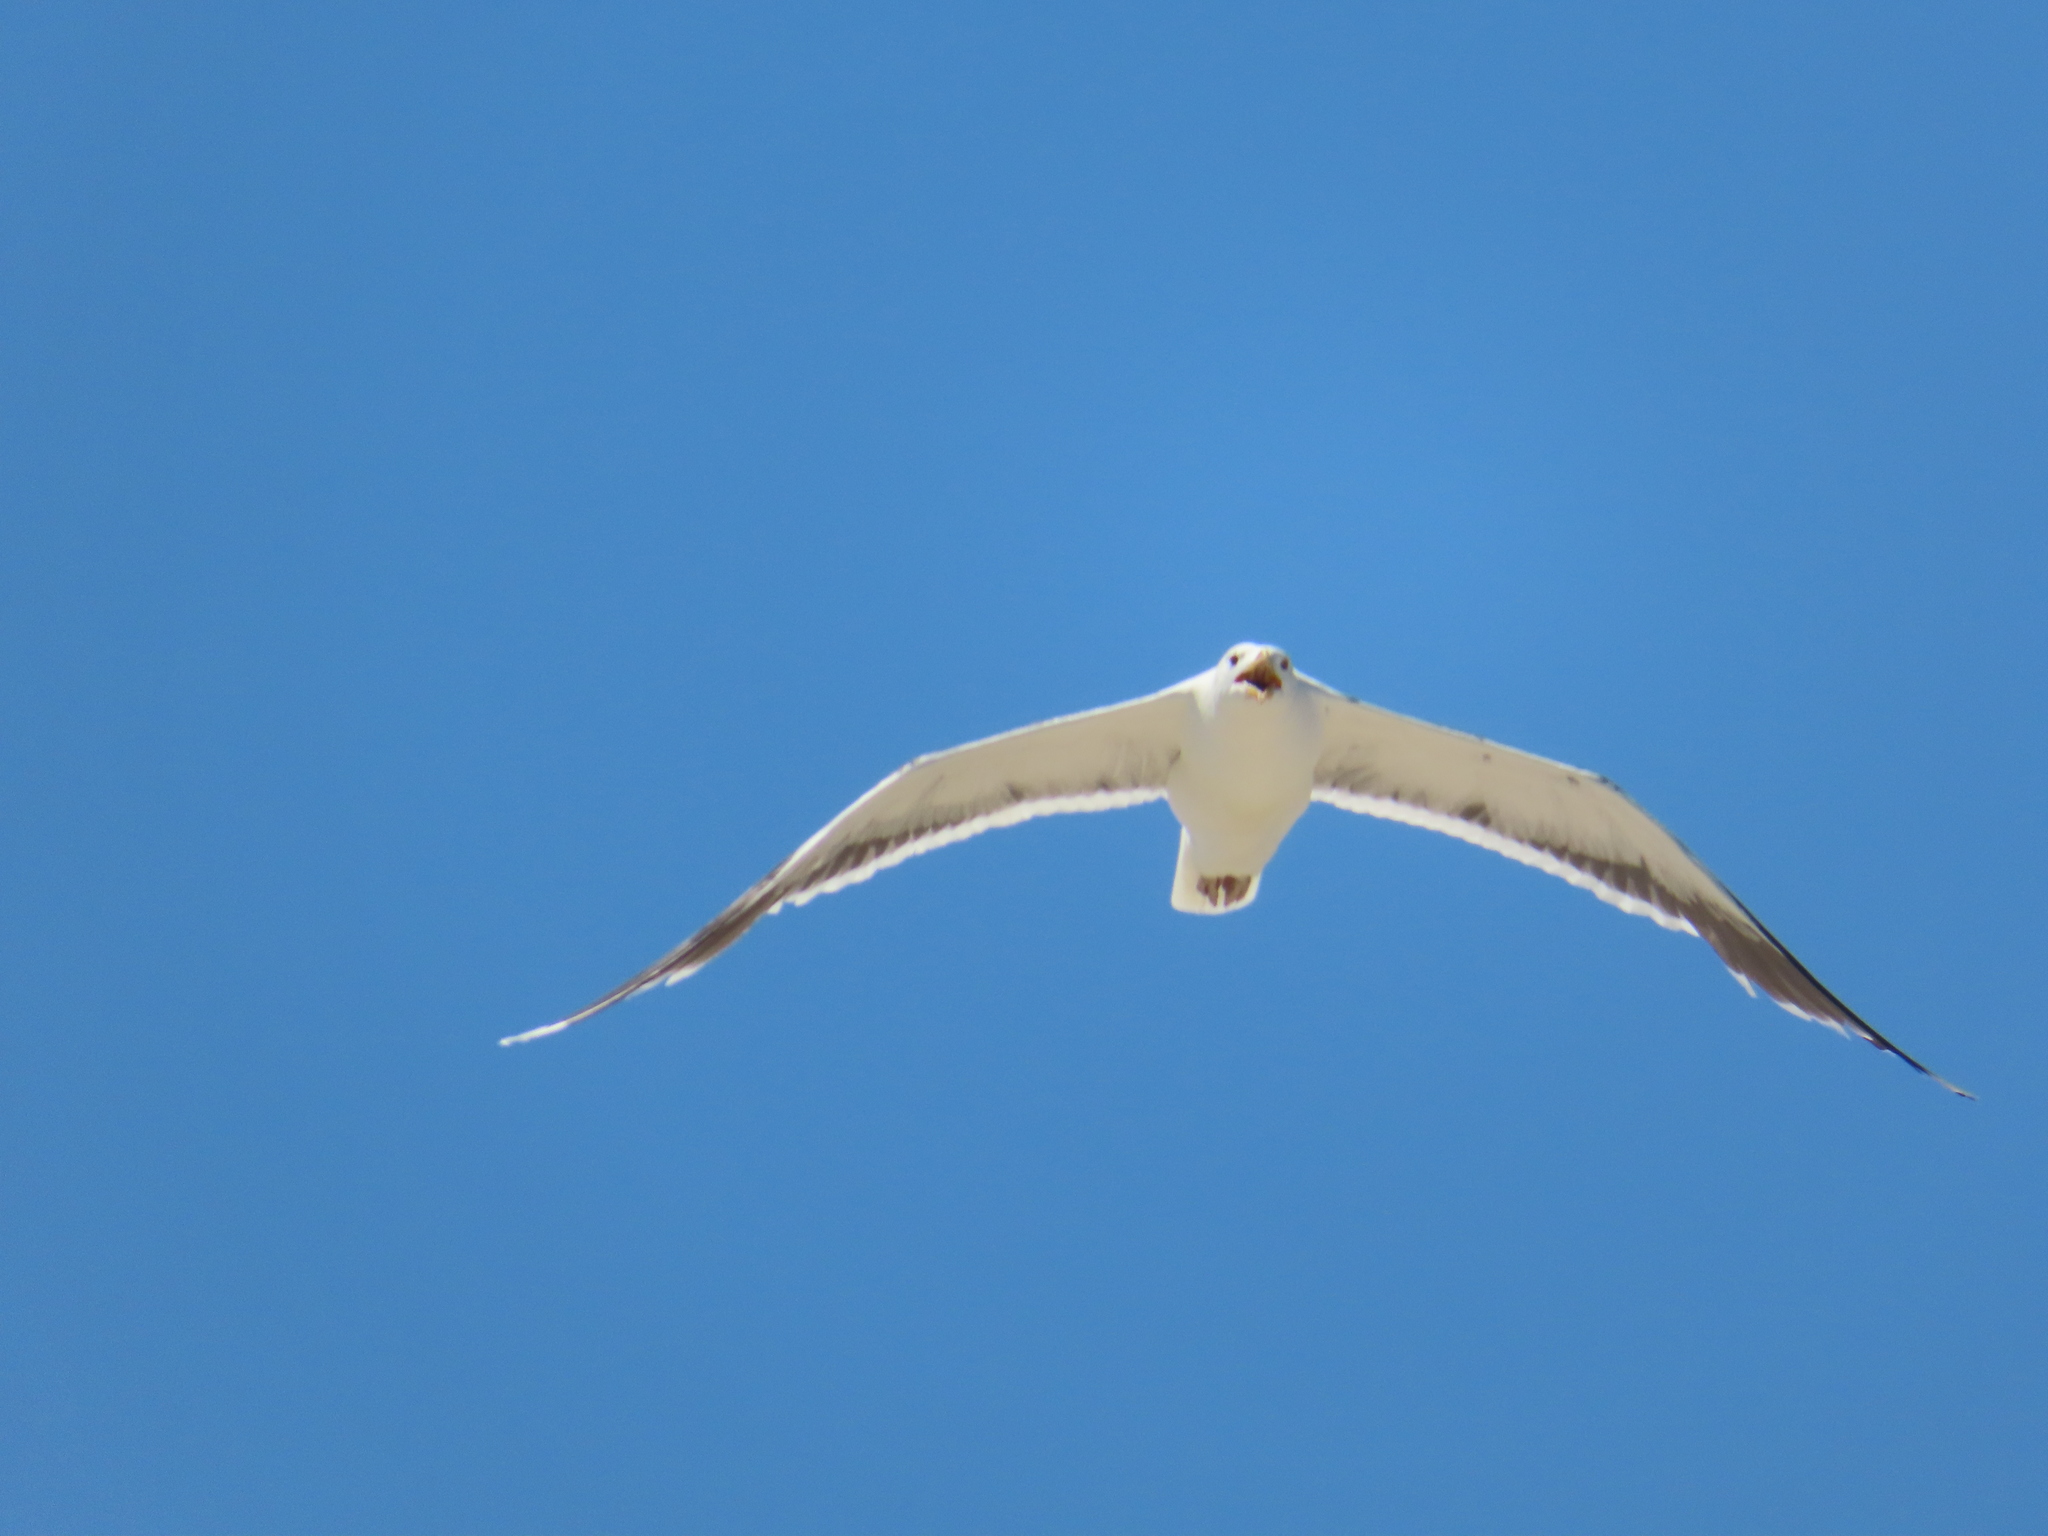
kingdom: Animalia
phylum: Chordata
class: Aves
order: Charadriiformes
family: Laridae
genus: Larus
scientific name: Larus marinus
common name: Great black-backed gull
